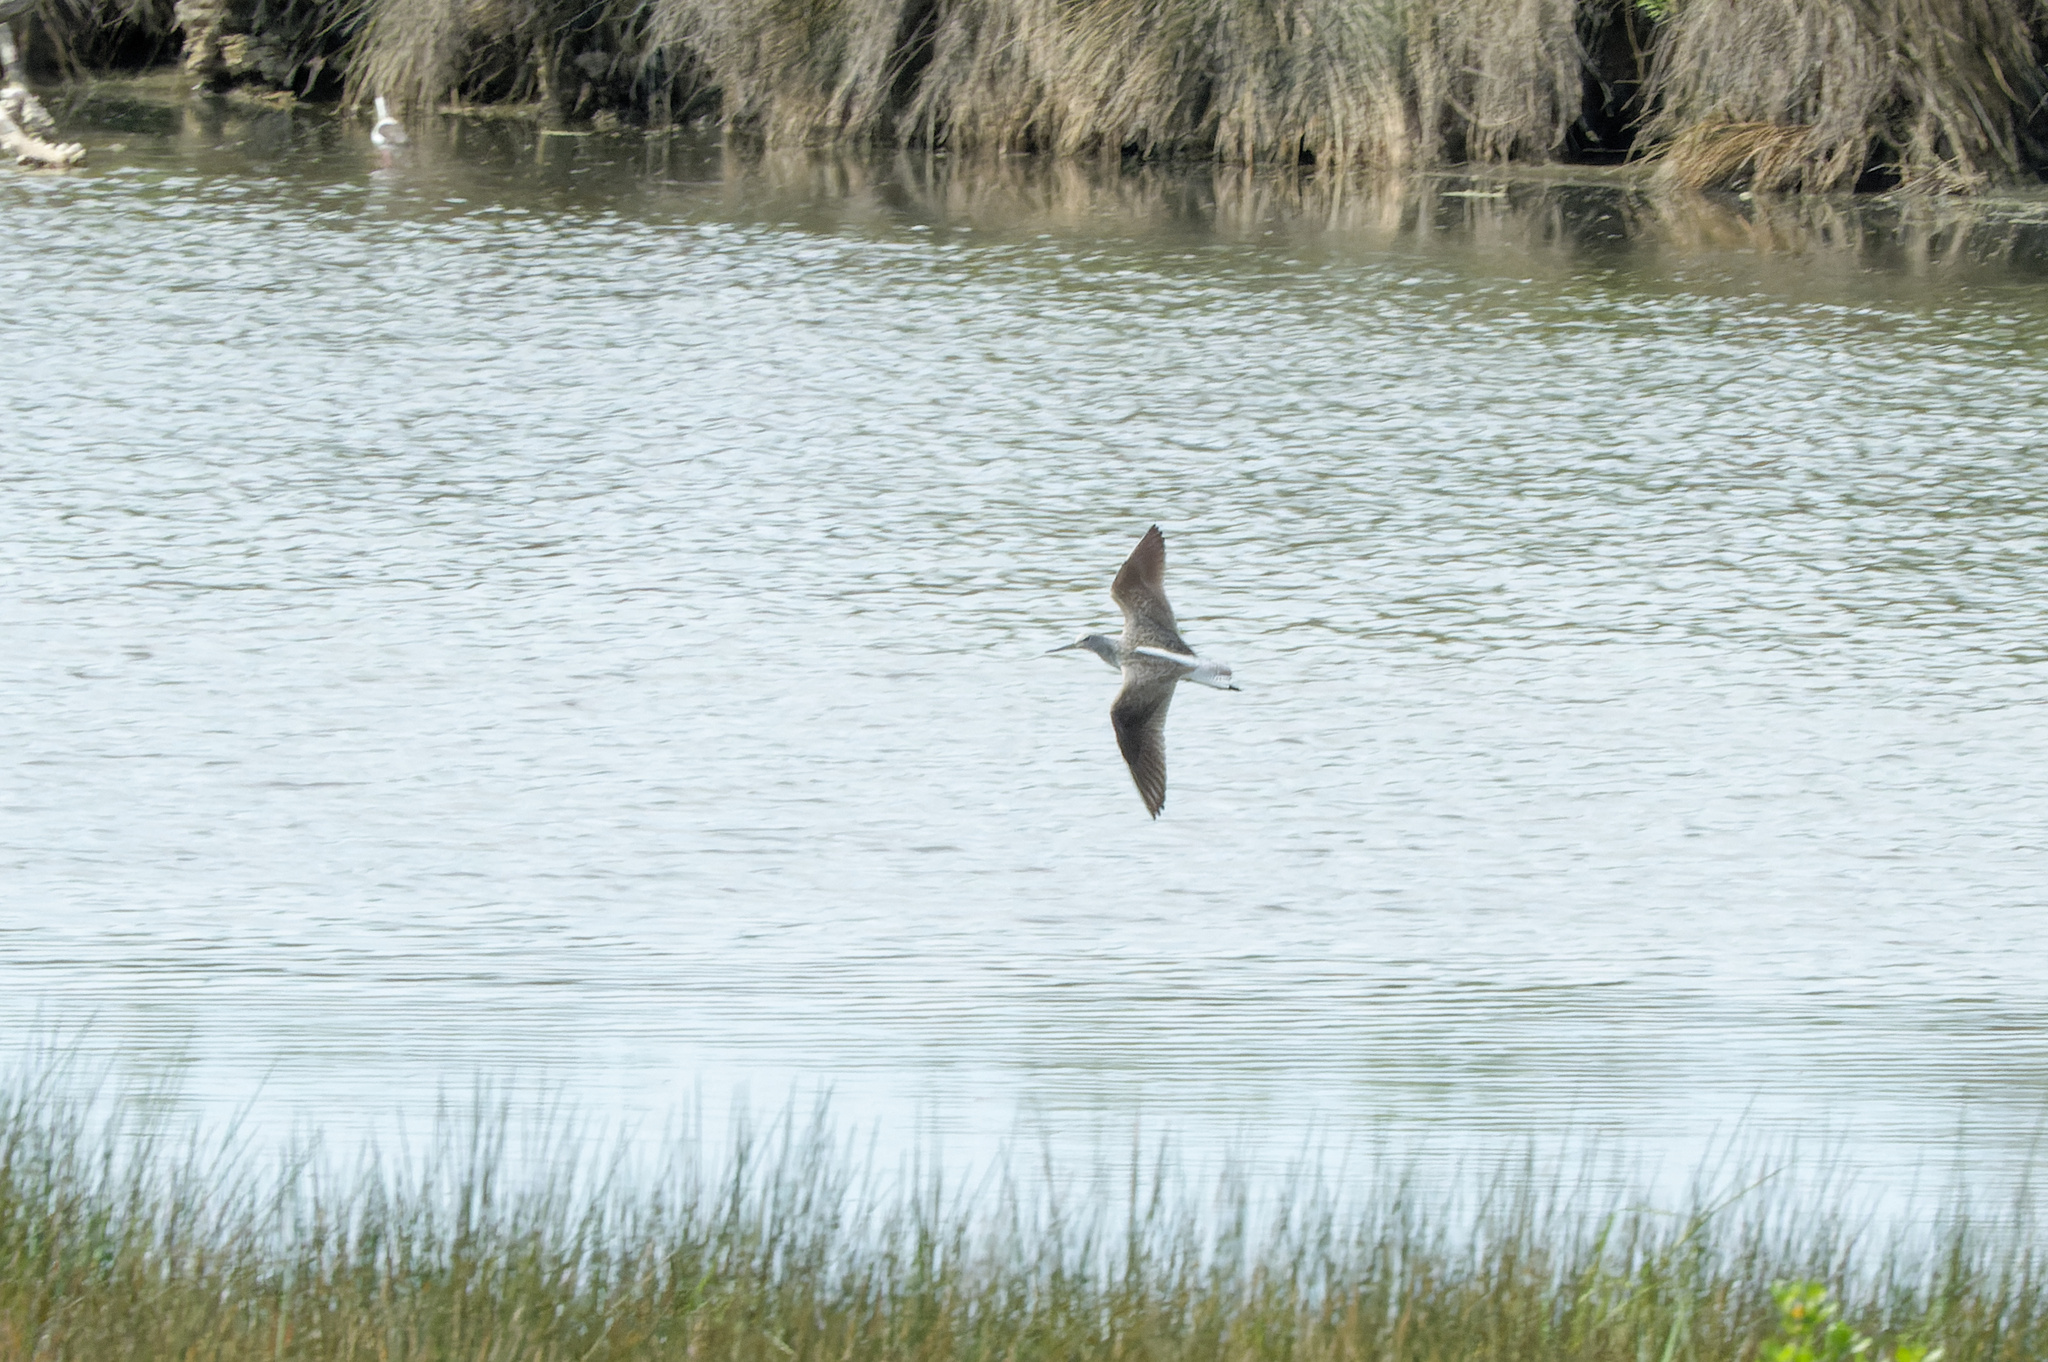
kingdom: Animalia
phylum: Chordata
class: Aves
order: Charadriiformes
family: Scolopacidae
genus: Tringa
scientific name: Tringa nebularia
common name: Common greenshank
